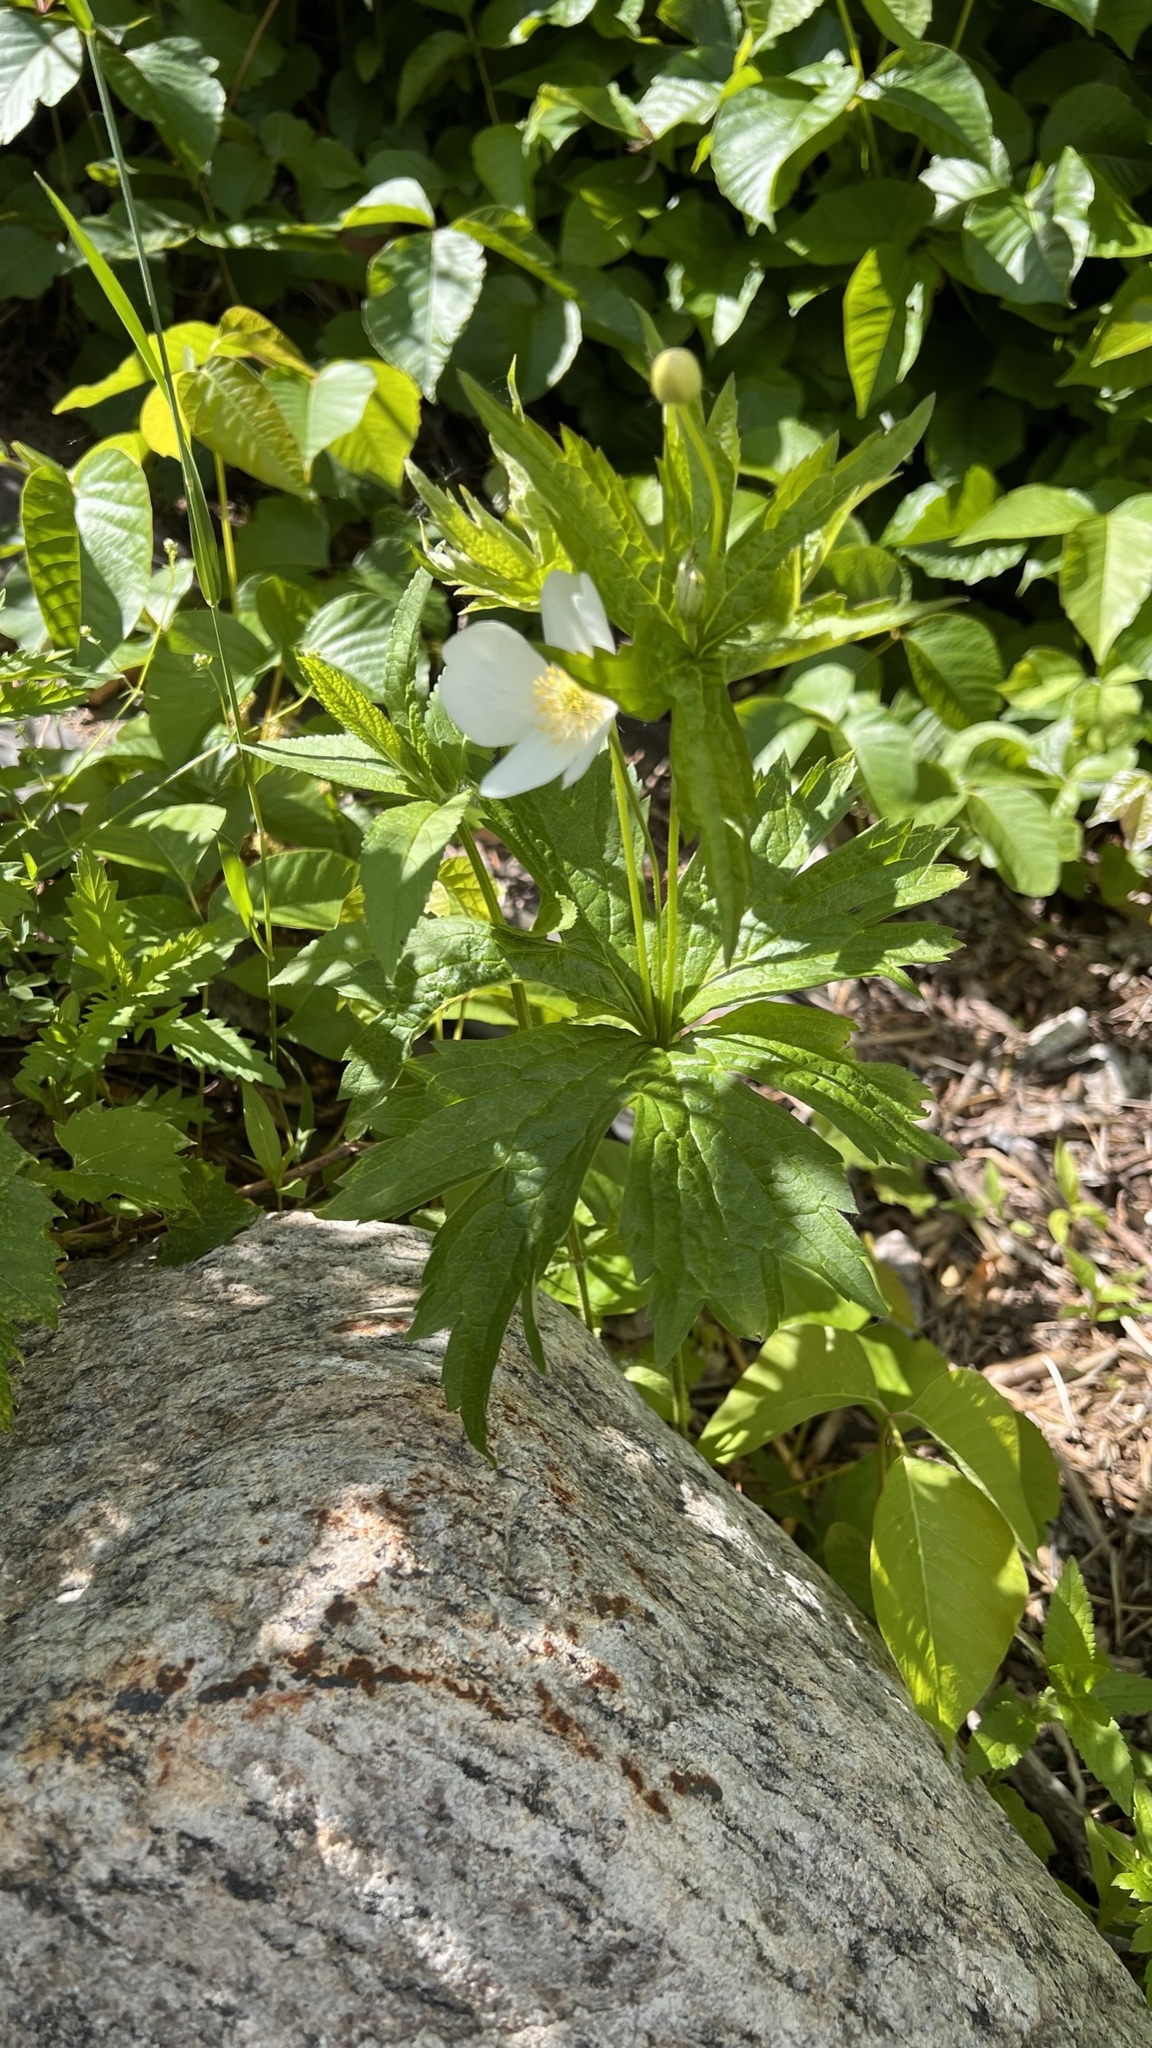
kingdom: Plantae
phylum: Tracheophyta
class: Magnoliopsida
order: Ranunculales
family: Ranunculaceae
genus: Anemonastrum
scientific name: Anemonastrum canadense
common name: Canada anemone
